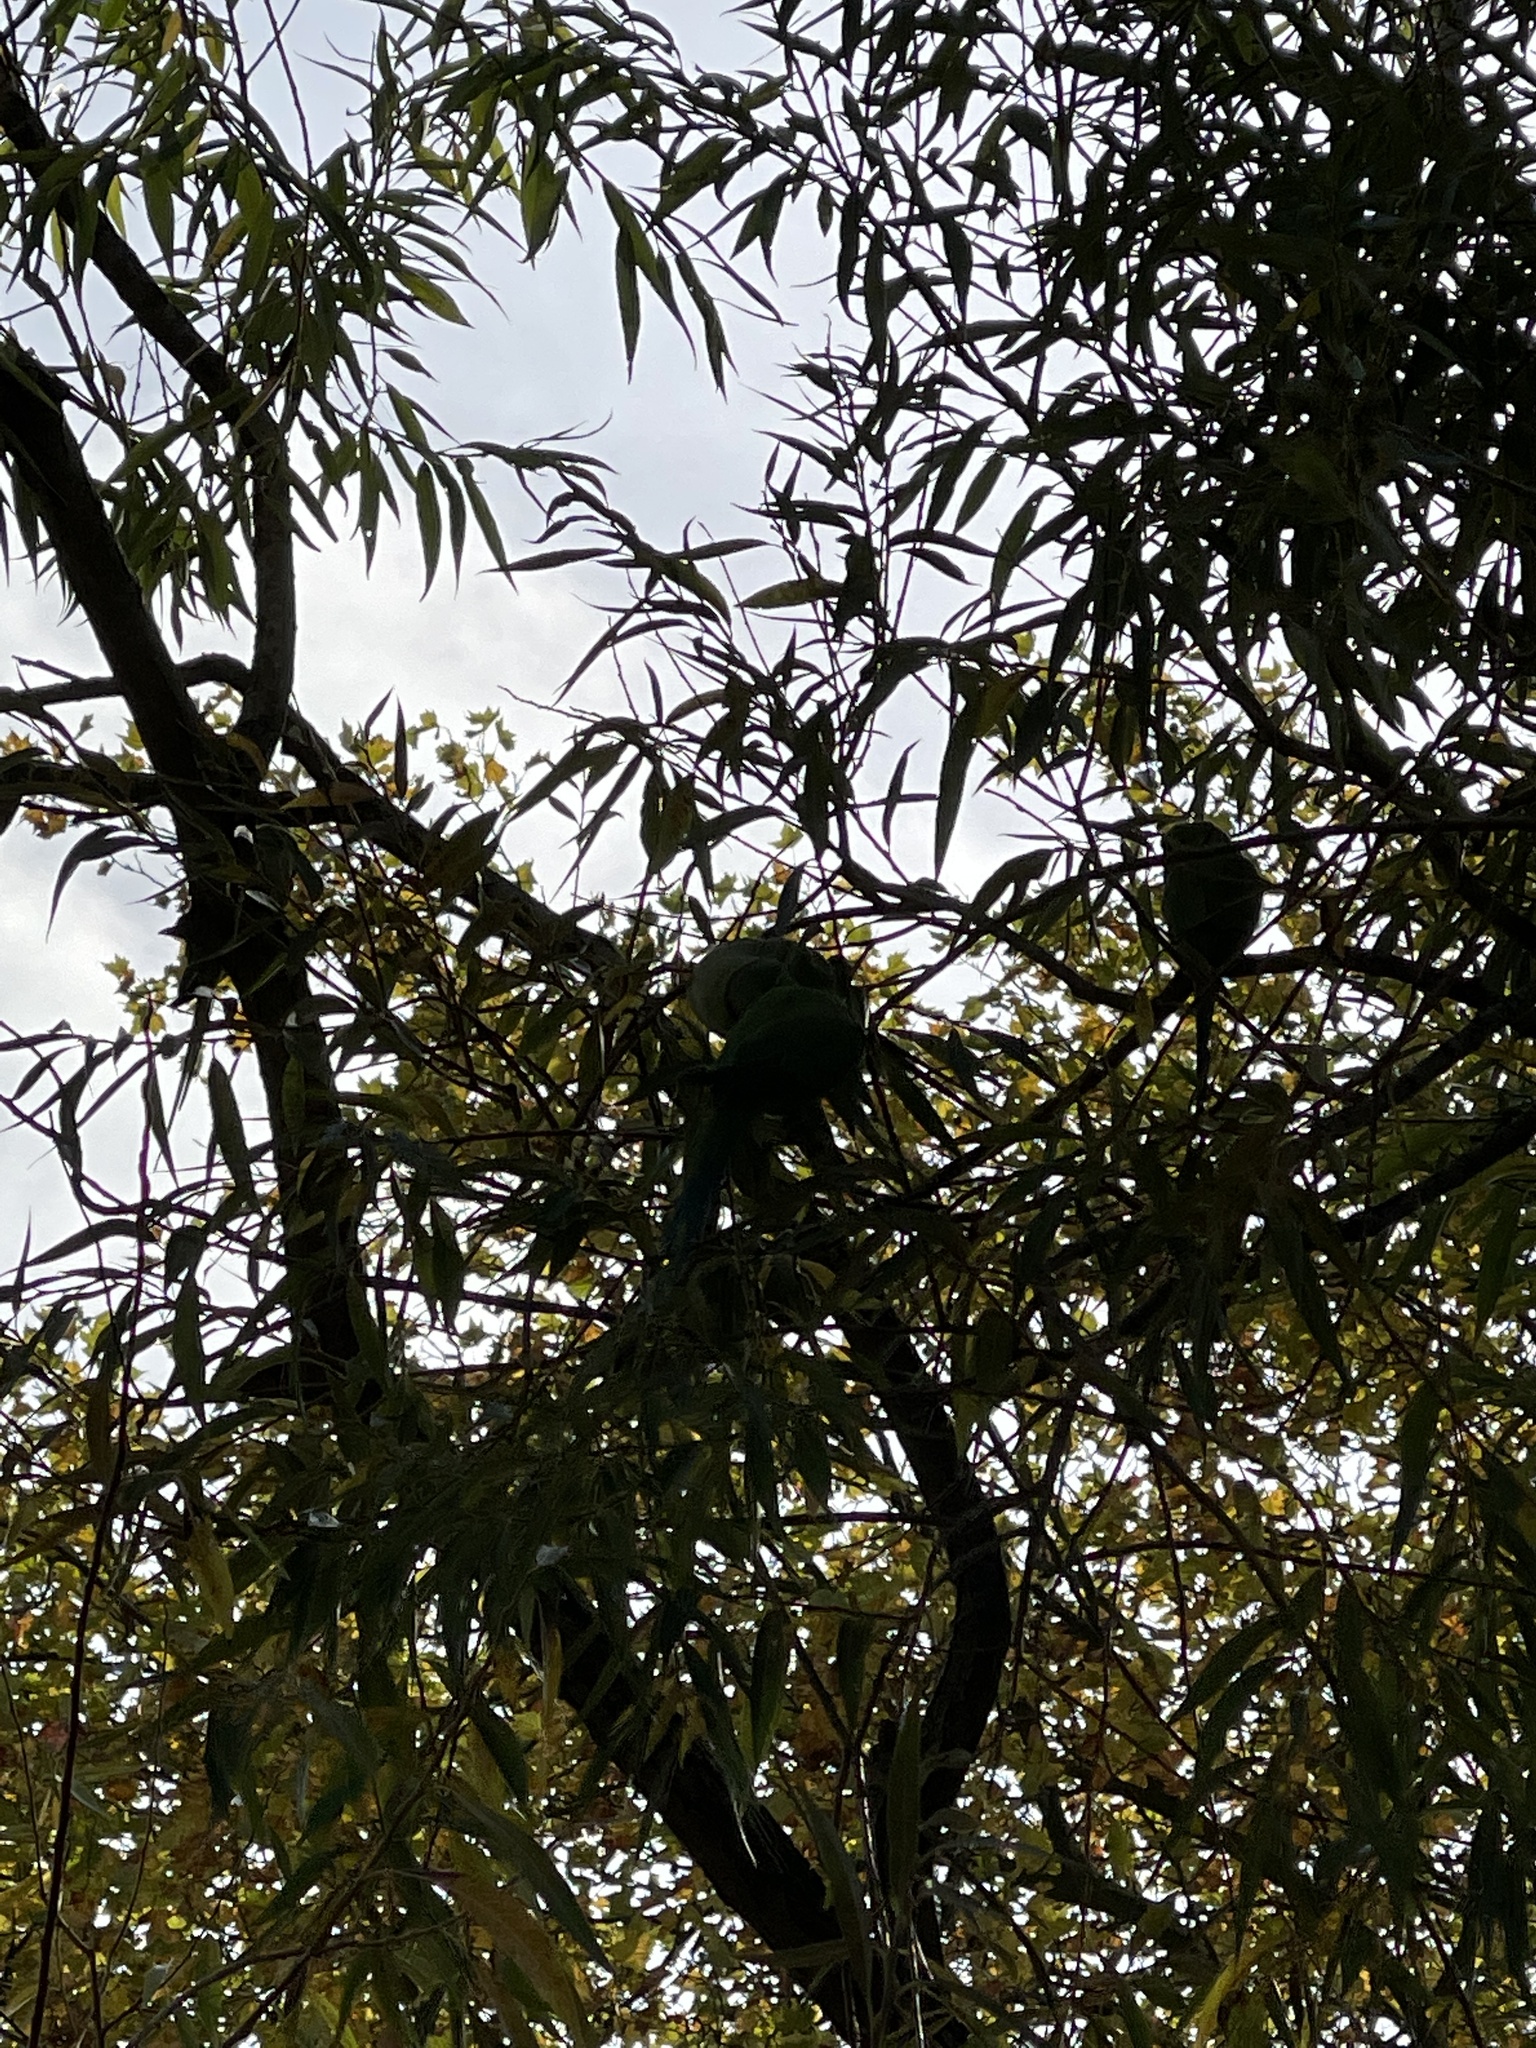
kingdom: Animalia
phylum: Chordata
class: Aves
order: Psittaciformes
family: Psittacidae
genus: Psittacula
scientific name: Psittacula krameri
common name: Rose-ringed parakeet
